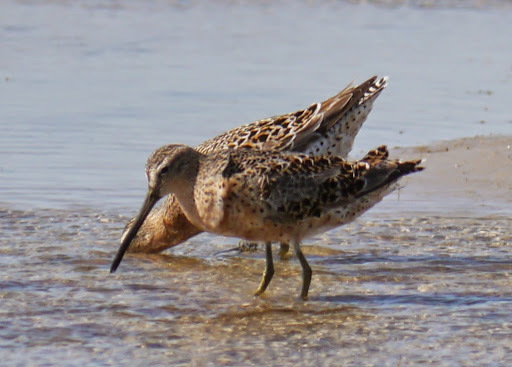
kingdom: Animalia
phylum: Chordata
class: Aves
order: Charadriiformes
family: Scolopacidae
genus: Limnodromus
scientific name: Limnodromus griseus
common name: Short-billed dowitcher
